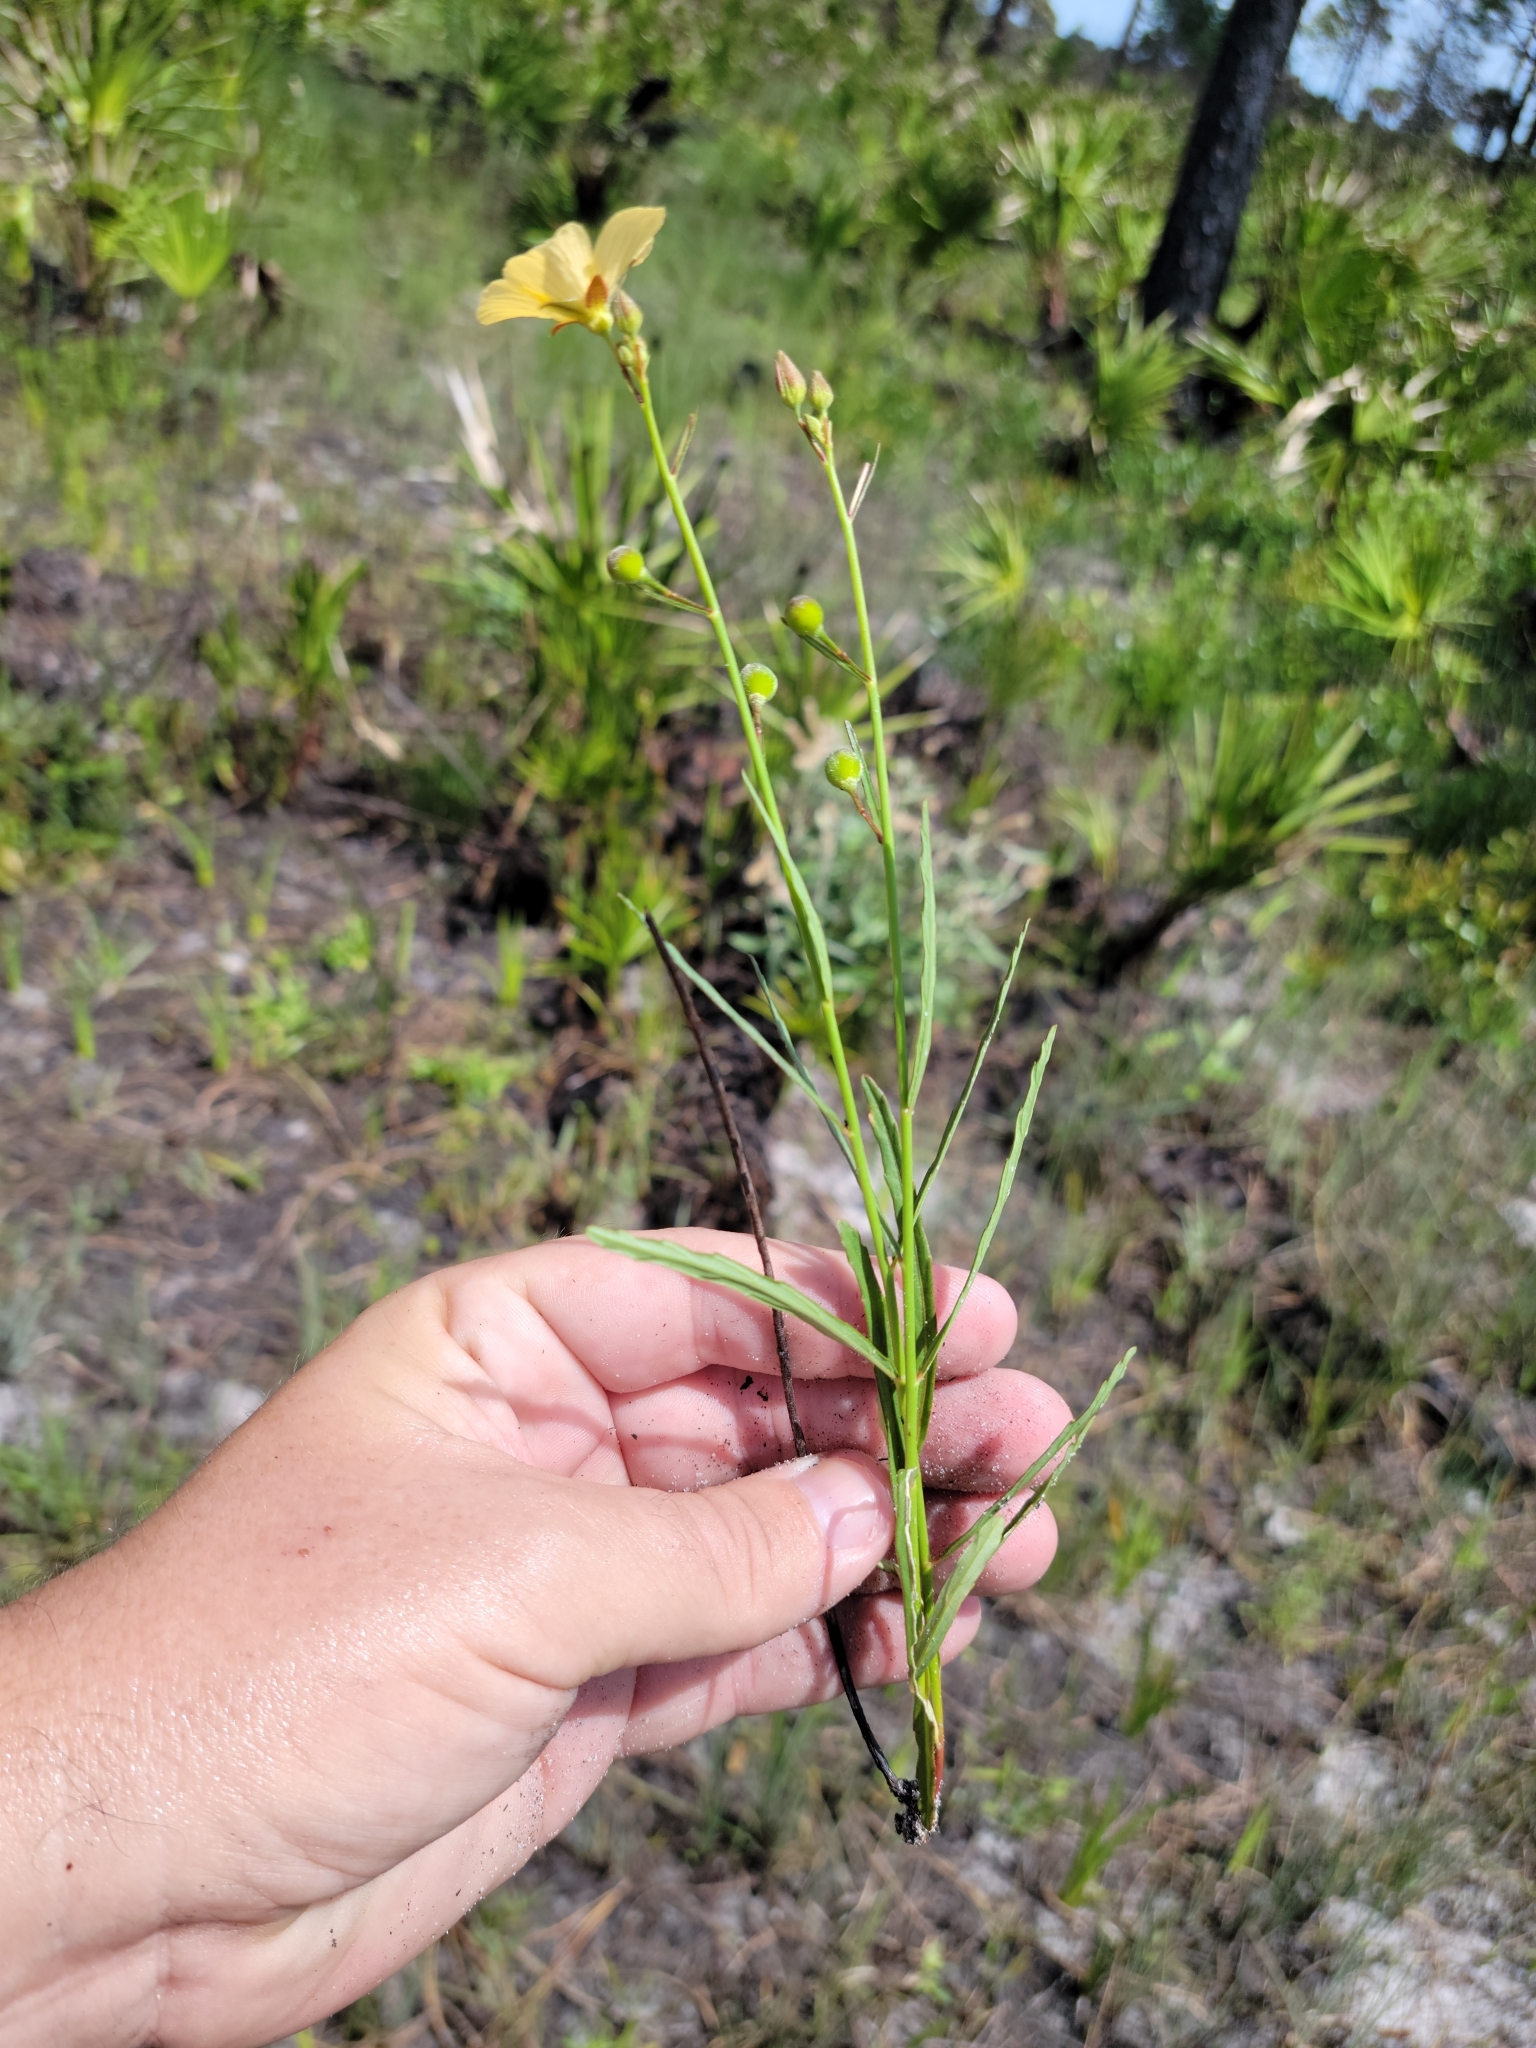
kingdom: Plantae
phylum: Tracheophyta
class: Magnoliopsida
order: Malpighiales
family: Turneraceae
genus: Piriqueta
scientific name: Piriqueta cistoides
